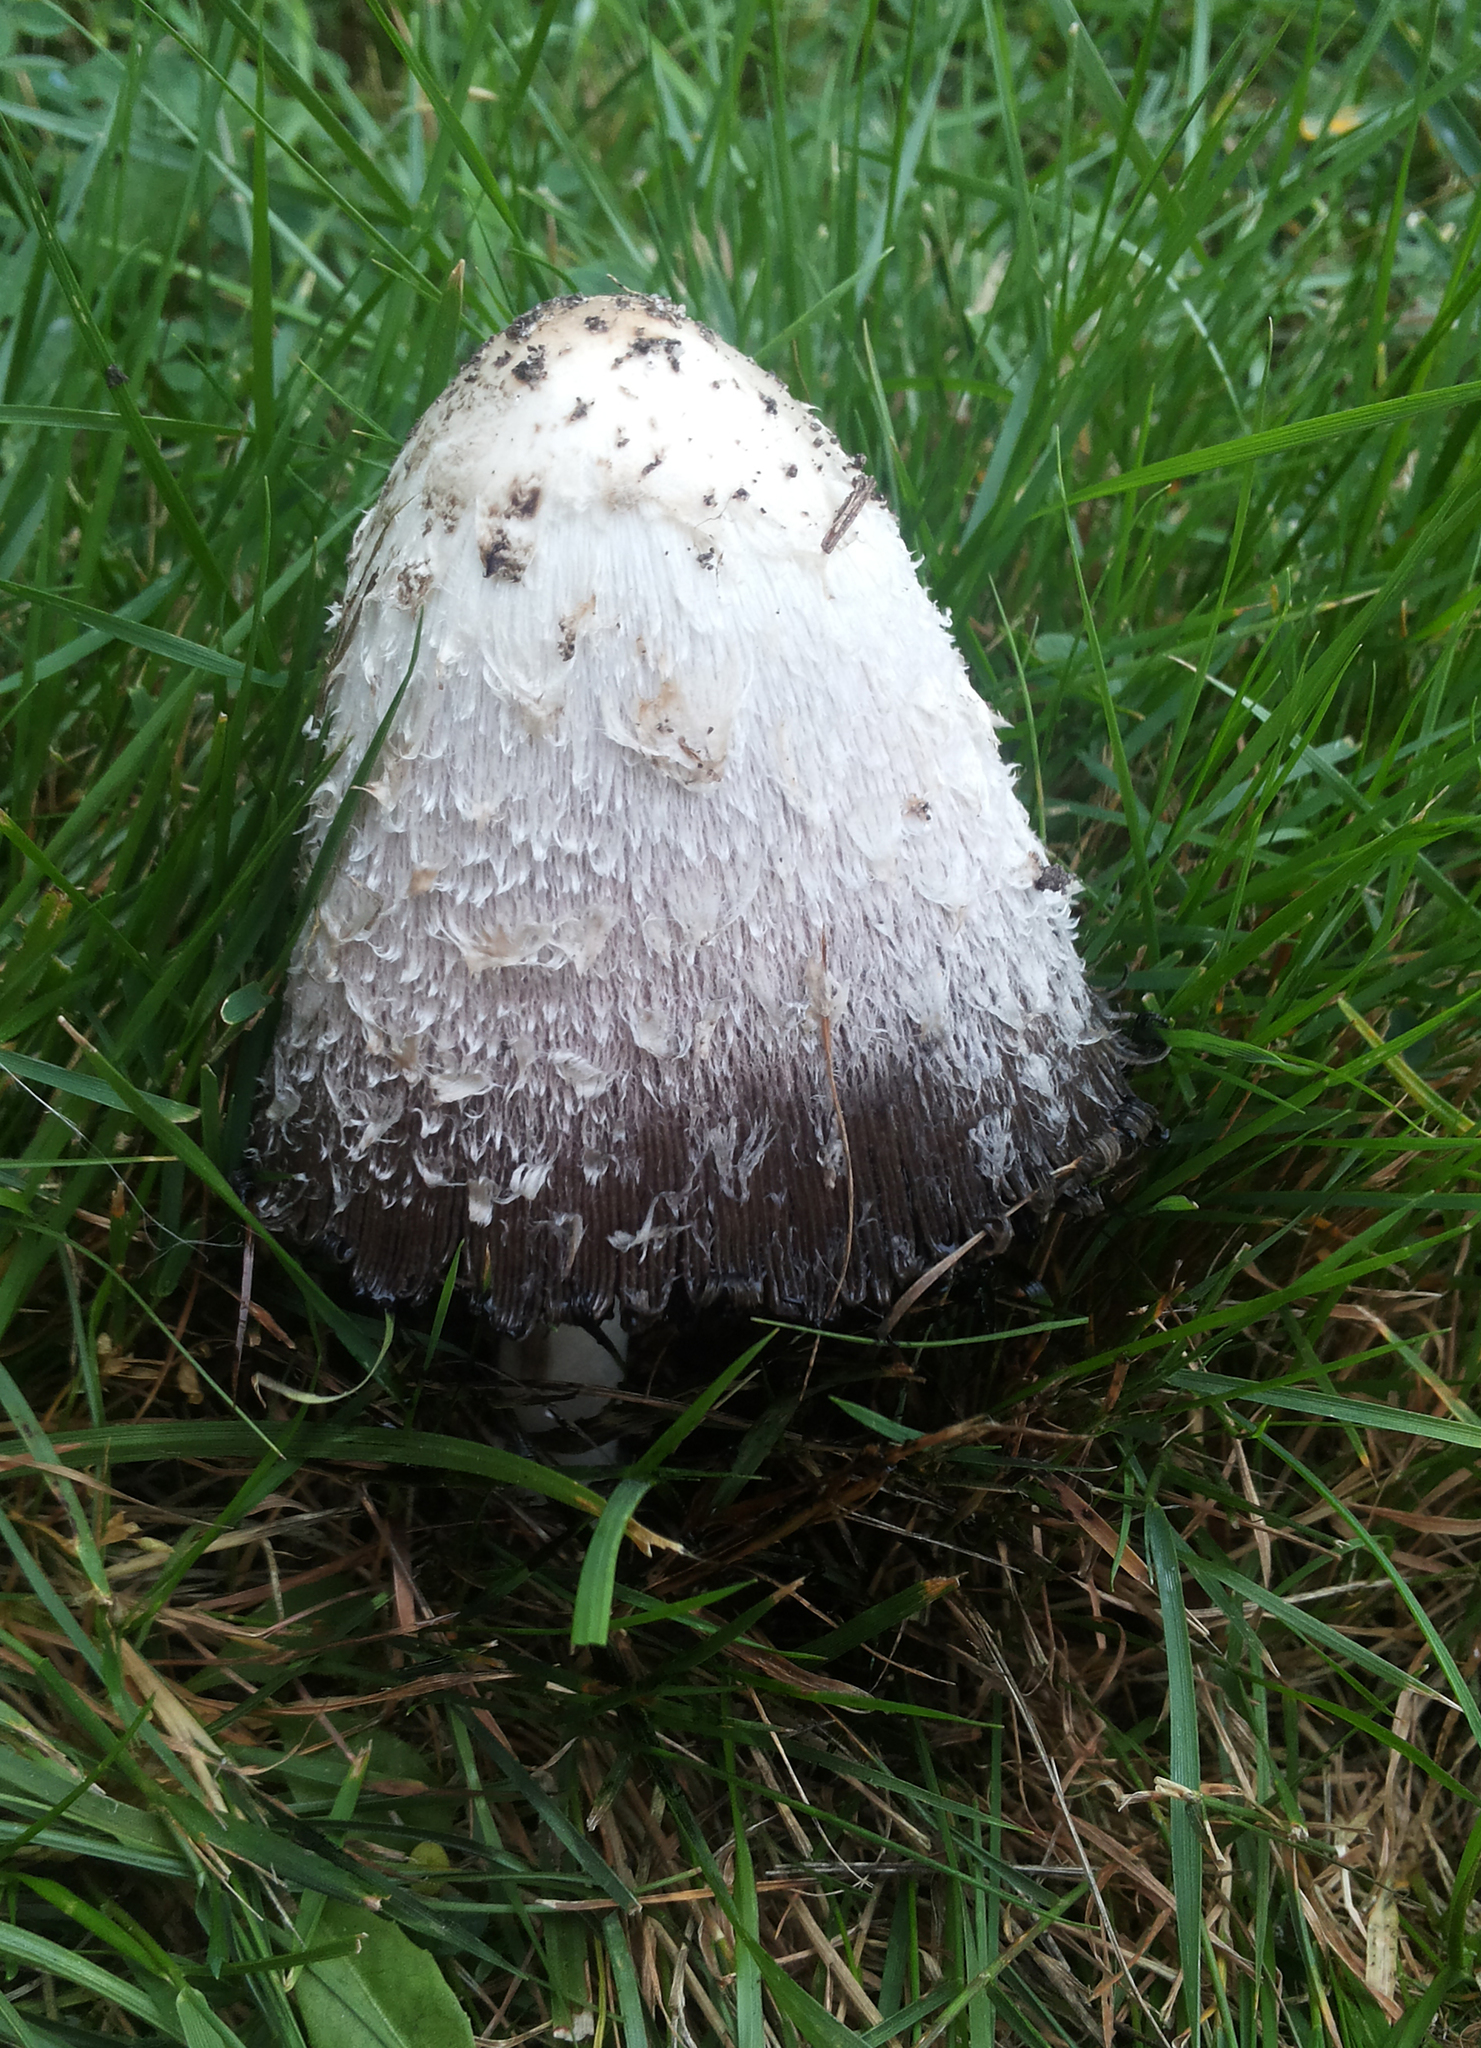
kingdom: Fungi
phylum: Basidiomycota
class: Agaricomycetes
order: Agaricales
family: Agaricaceae
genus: Coprinus
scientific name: Coprinus comatus
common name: Lawyer's wig
